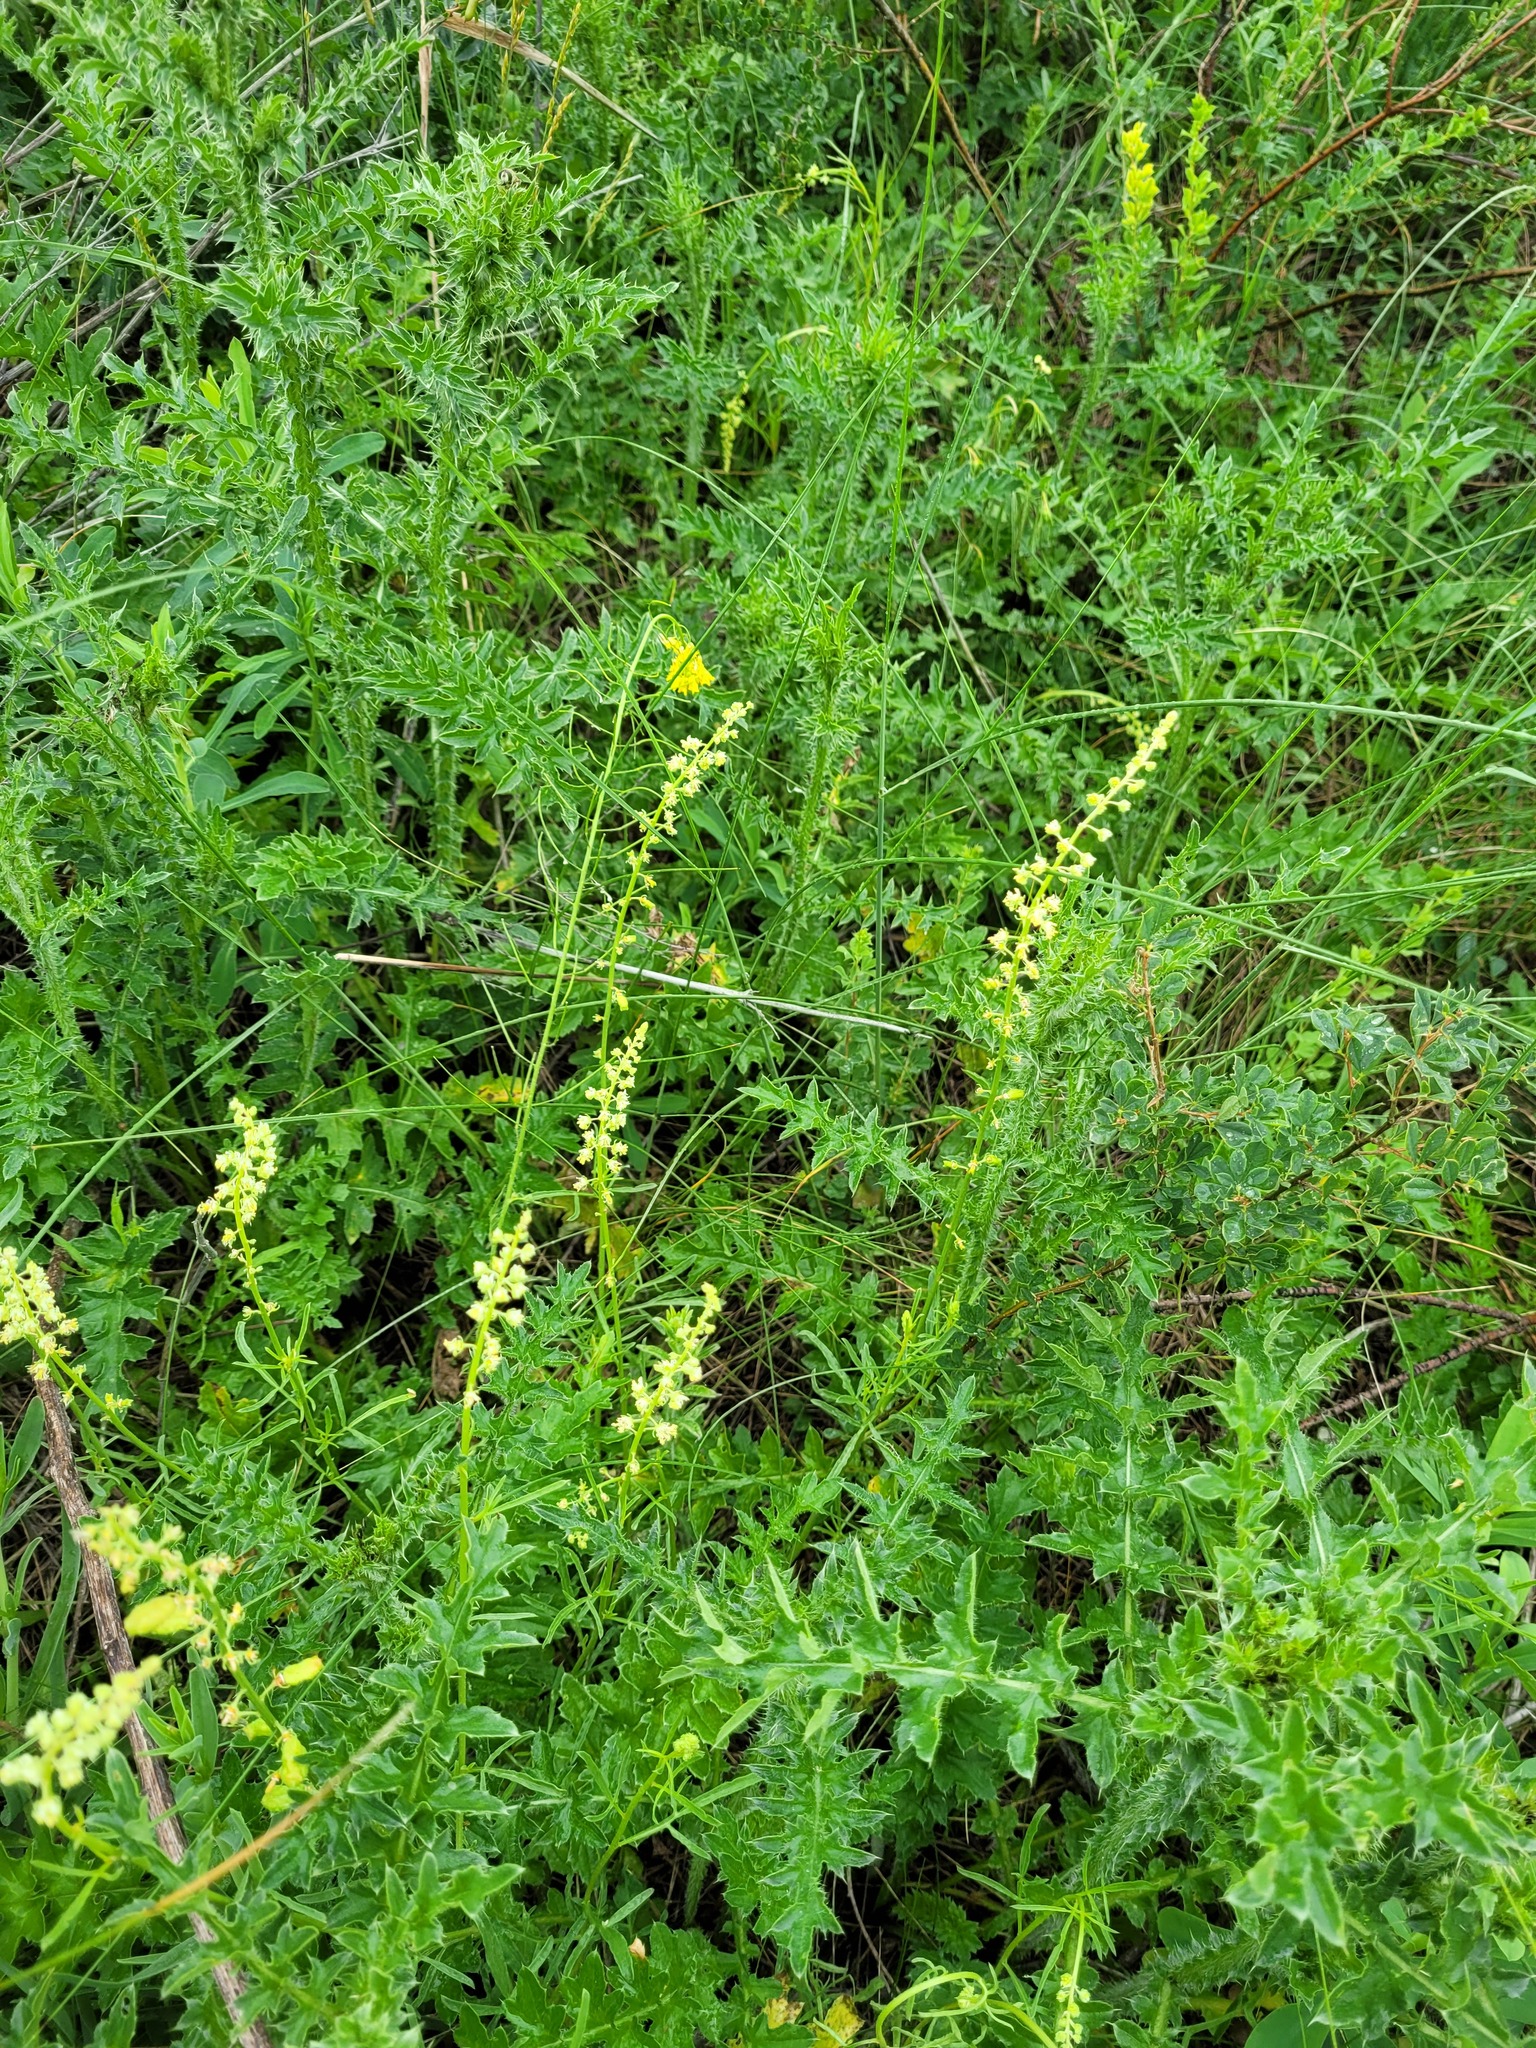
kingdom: Plantae
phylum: Tracheophyta
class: Magnoliopsida
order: Brassicales
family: Resedaceae
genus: Reseda
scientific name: Reseda lutea
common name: Wild mignonette
